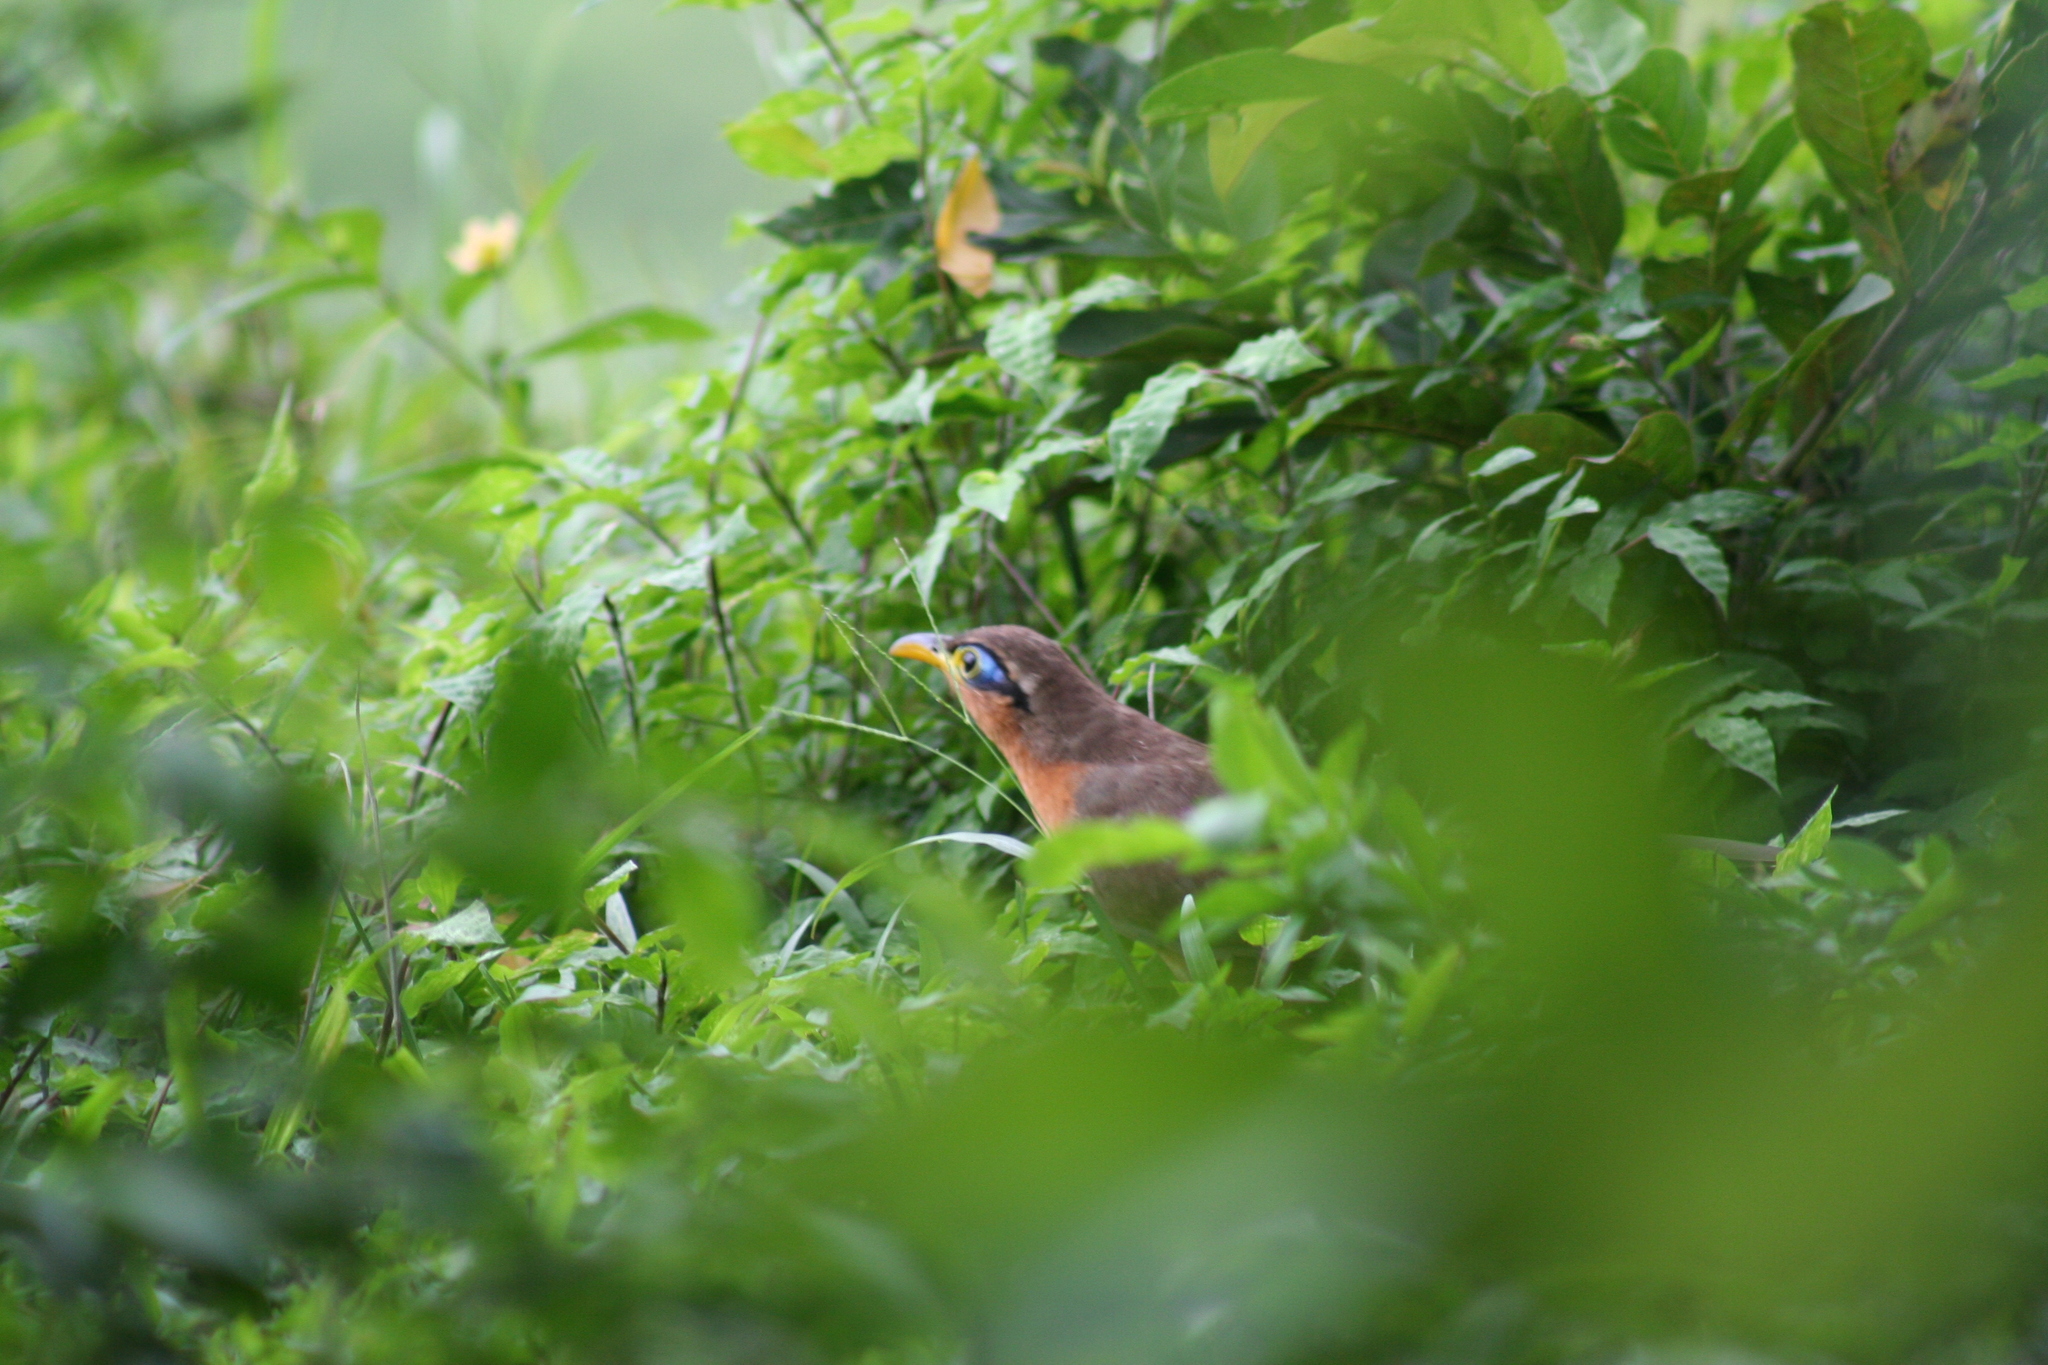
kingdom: Animalia
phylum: Chordata
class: Aves
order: Cuculiformes
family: Cuculidae
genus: Morococcyx
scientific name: Morococcyx erythropygus
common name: Lesser ground-cuckoo
